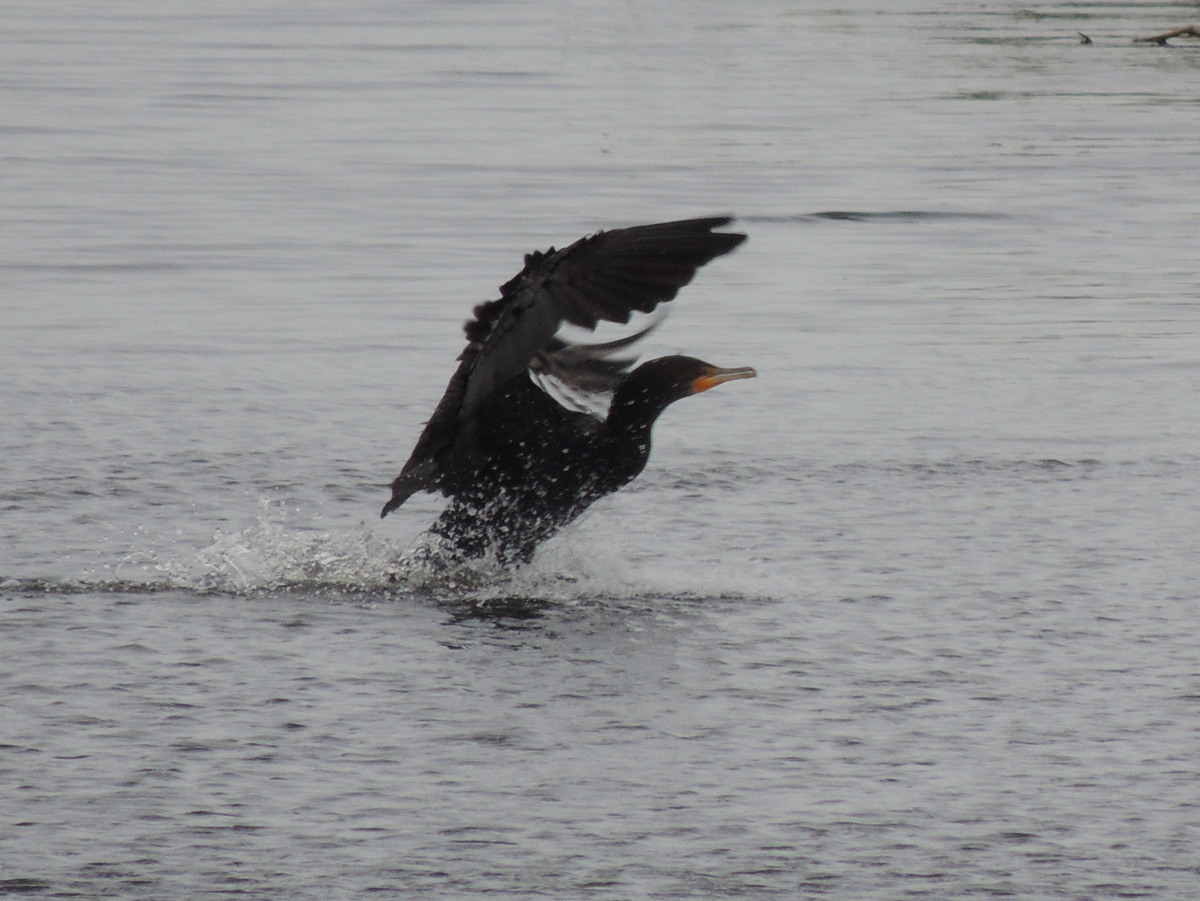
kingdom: Animalia
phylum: Chordata
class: Aves
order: Suliformes
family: Phalacrocoracidae
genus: Phalacrocorax
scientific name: Phalacrocorax auritus
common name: Double-crested cormorant
